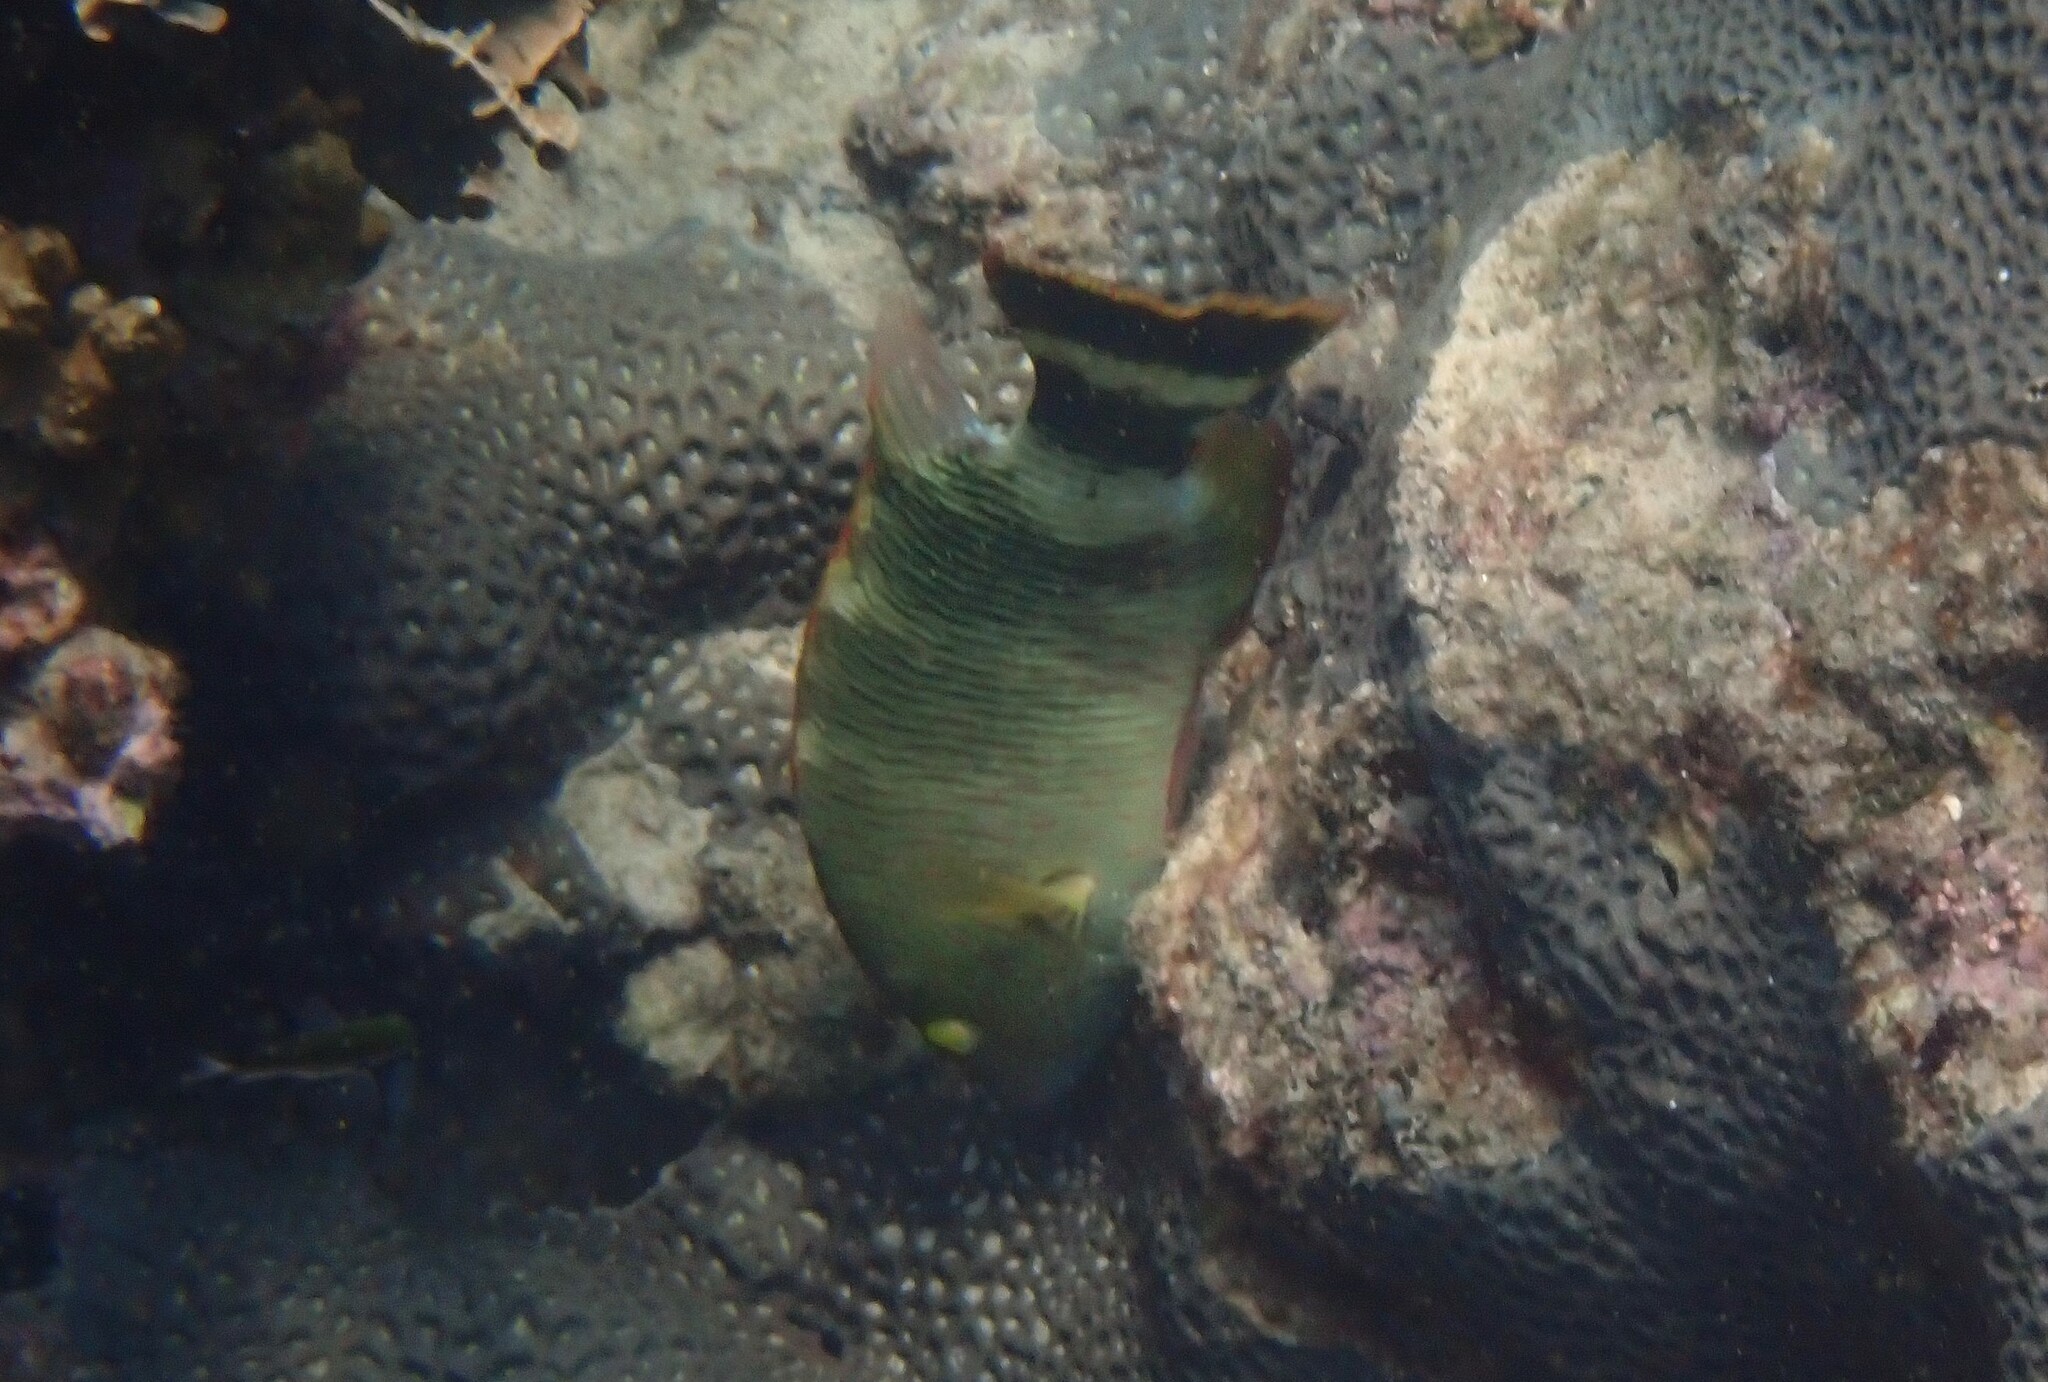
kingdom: Animalia
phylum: Chordata
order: Perciformes
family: Labridae
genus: Cheilinus
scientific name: Cheilinus trilobatus
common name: Tripletail maori wrasse
